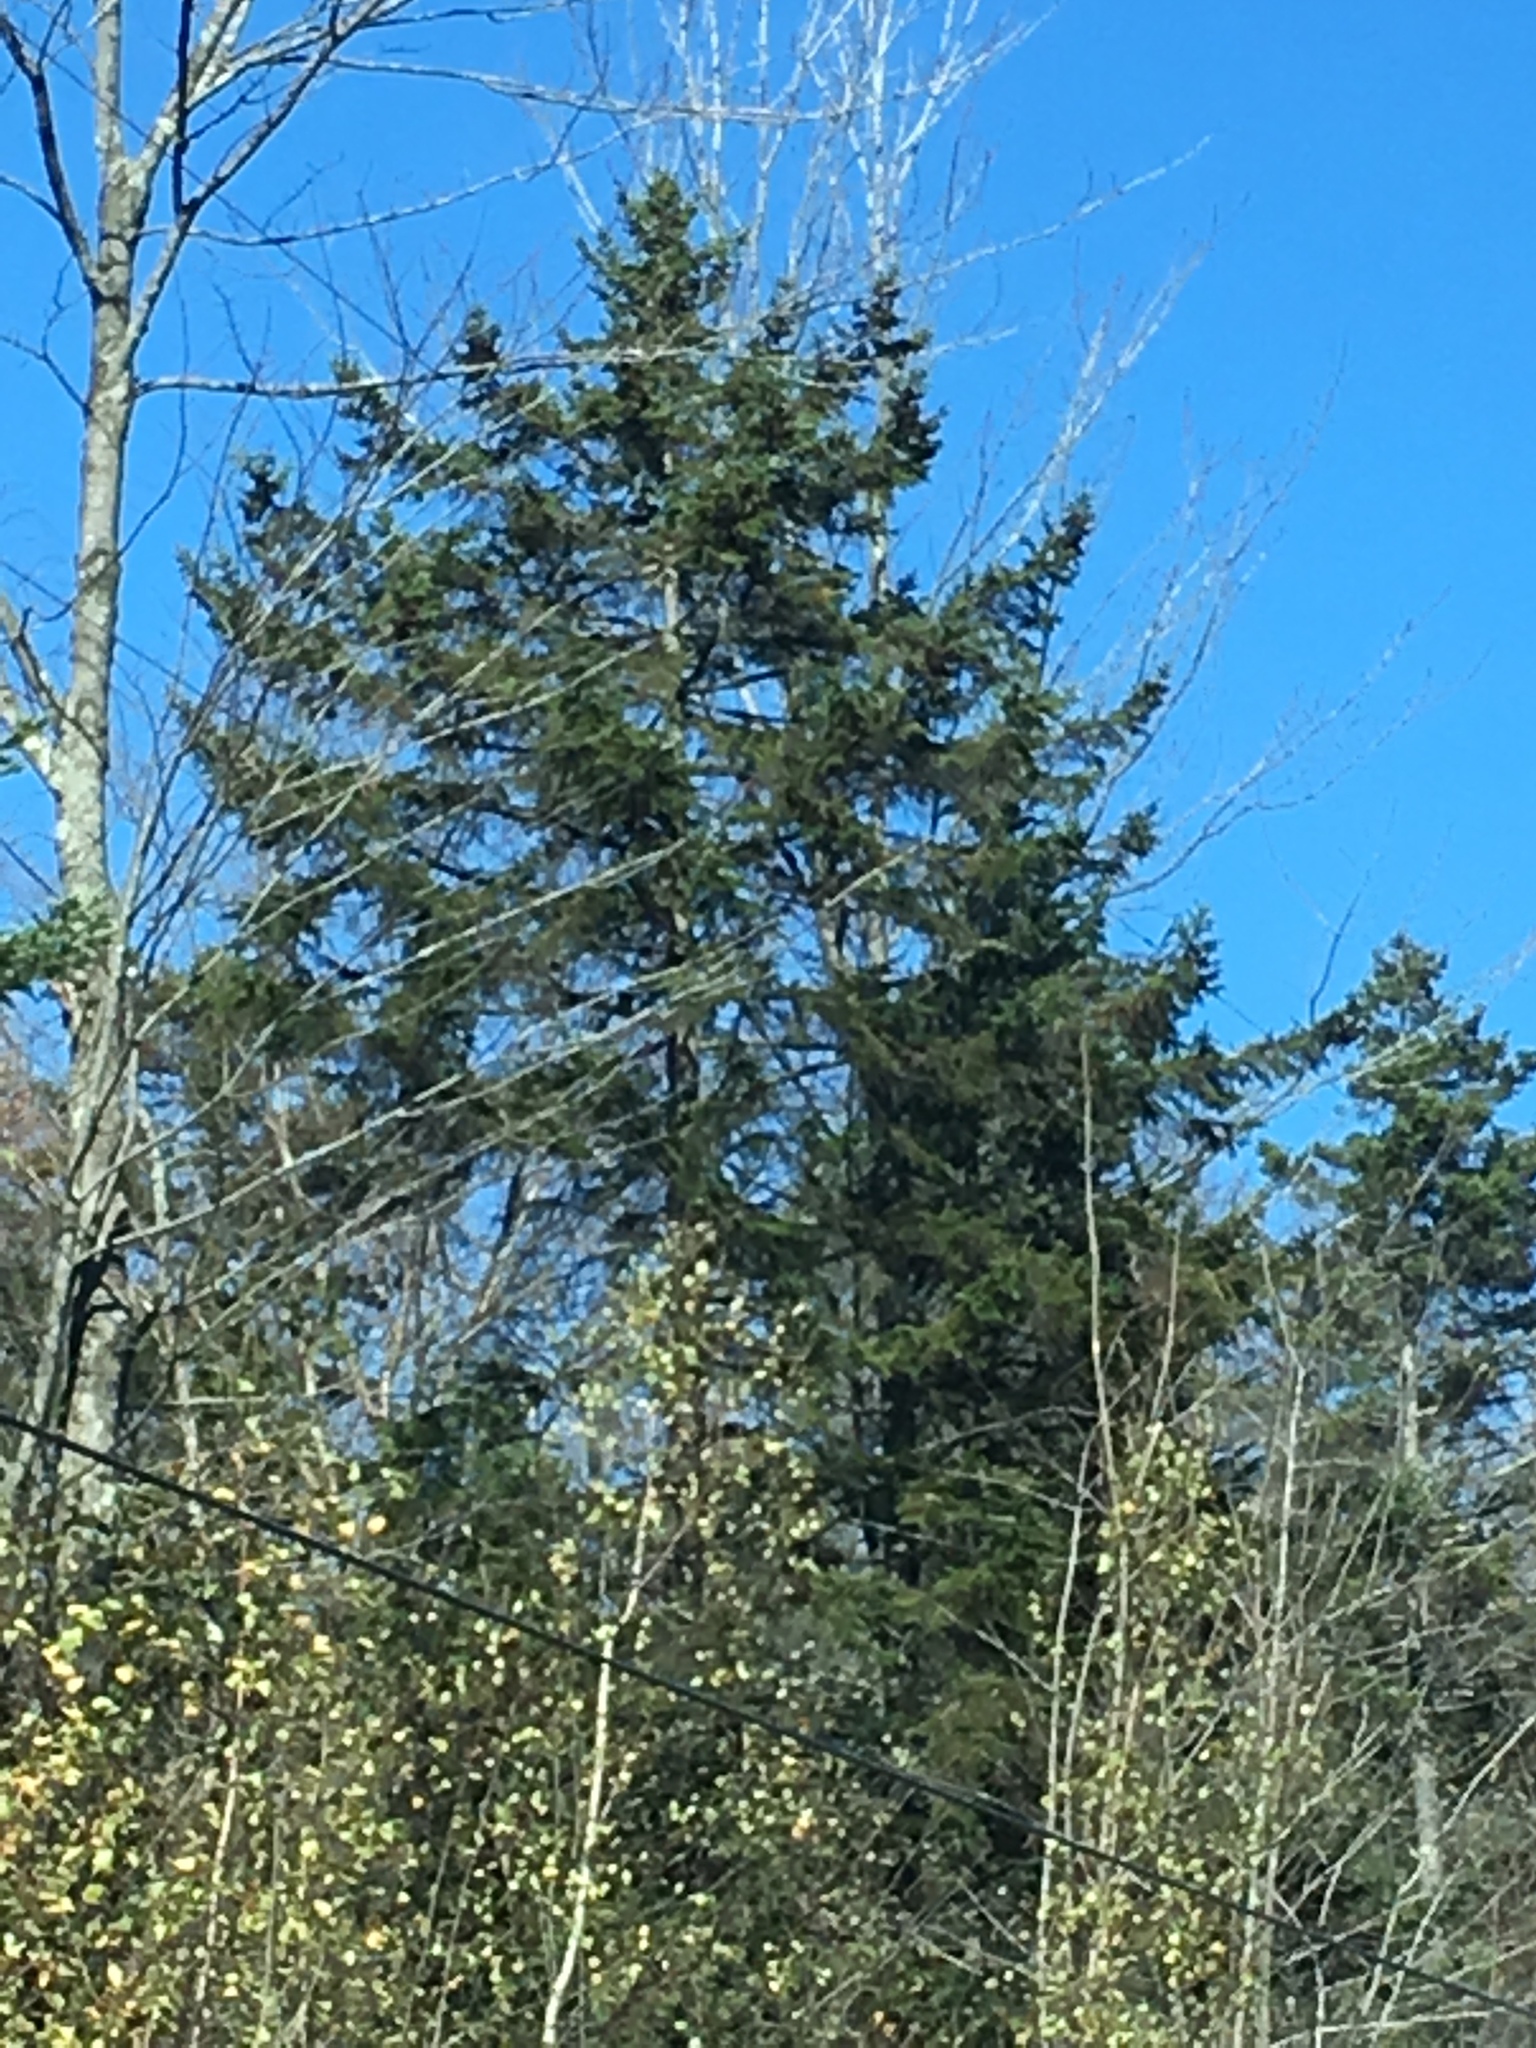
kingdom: Plantae
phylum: Tracheophyta
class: Pinopsida
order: Pinales
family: Pinaceae
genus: Picea
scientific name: Picea rubens
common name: Red spruce
